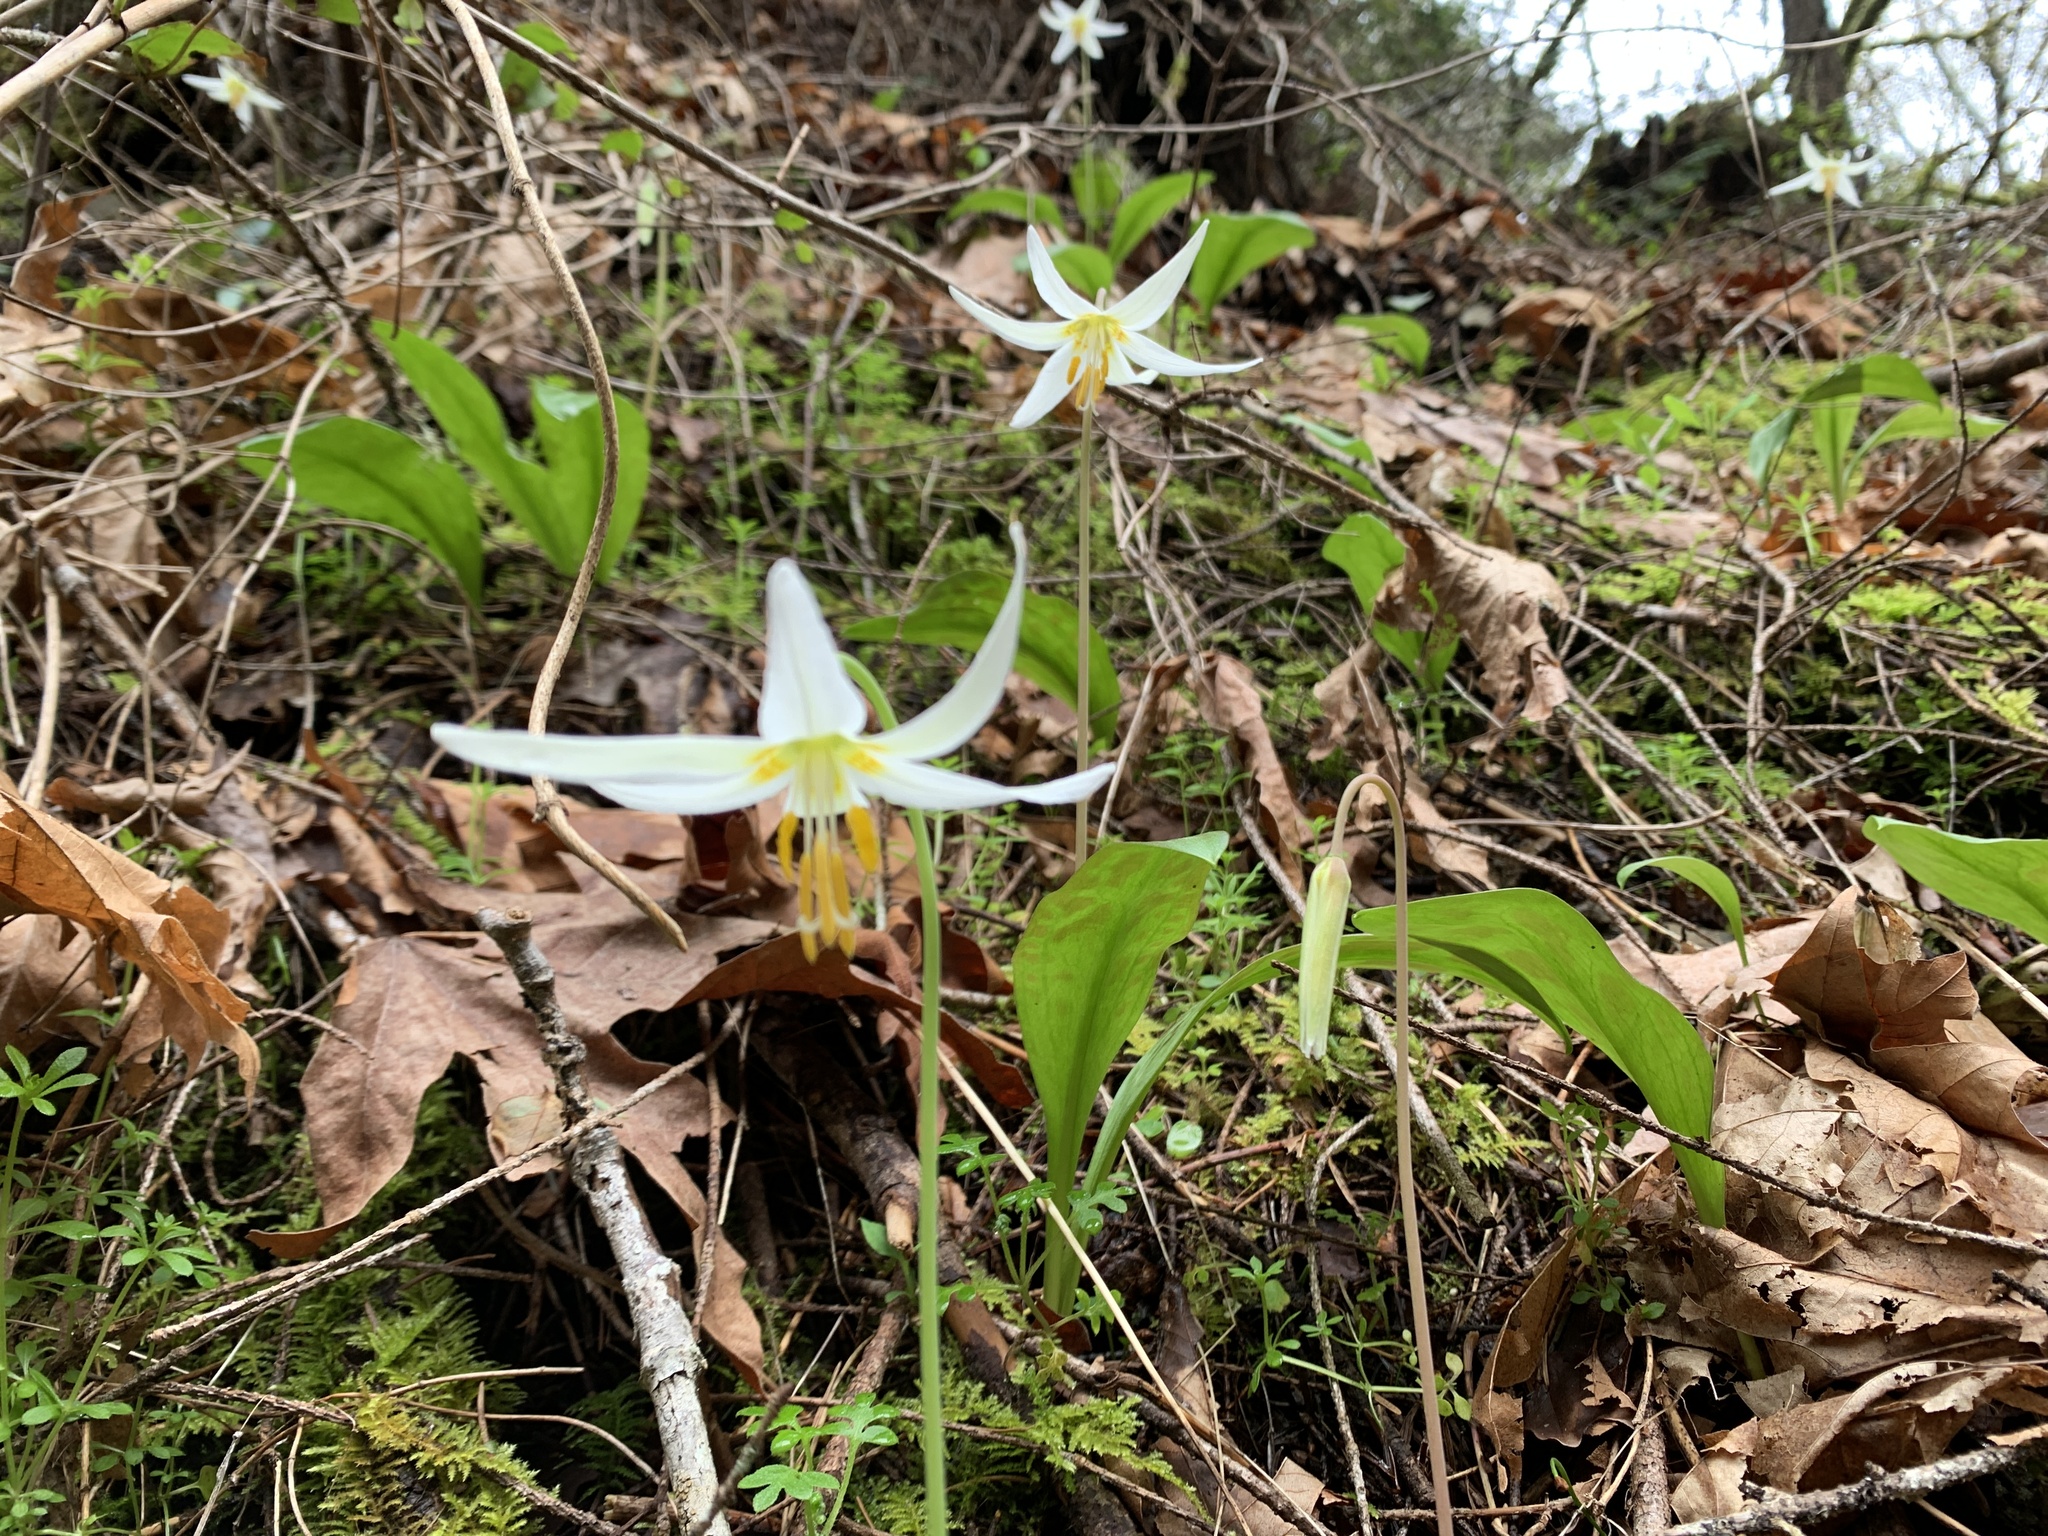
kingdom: Plantae
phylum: Tracheophyta
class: Liliopsida
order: Liliales
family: Liliaceae
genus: Erythronium
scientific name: Erythronium oregonum
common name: Giant adder's-tongue
